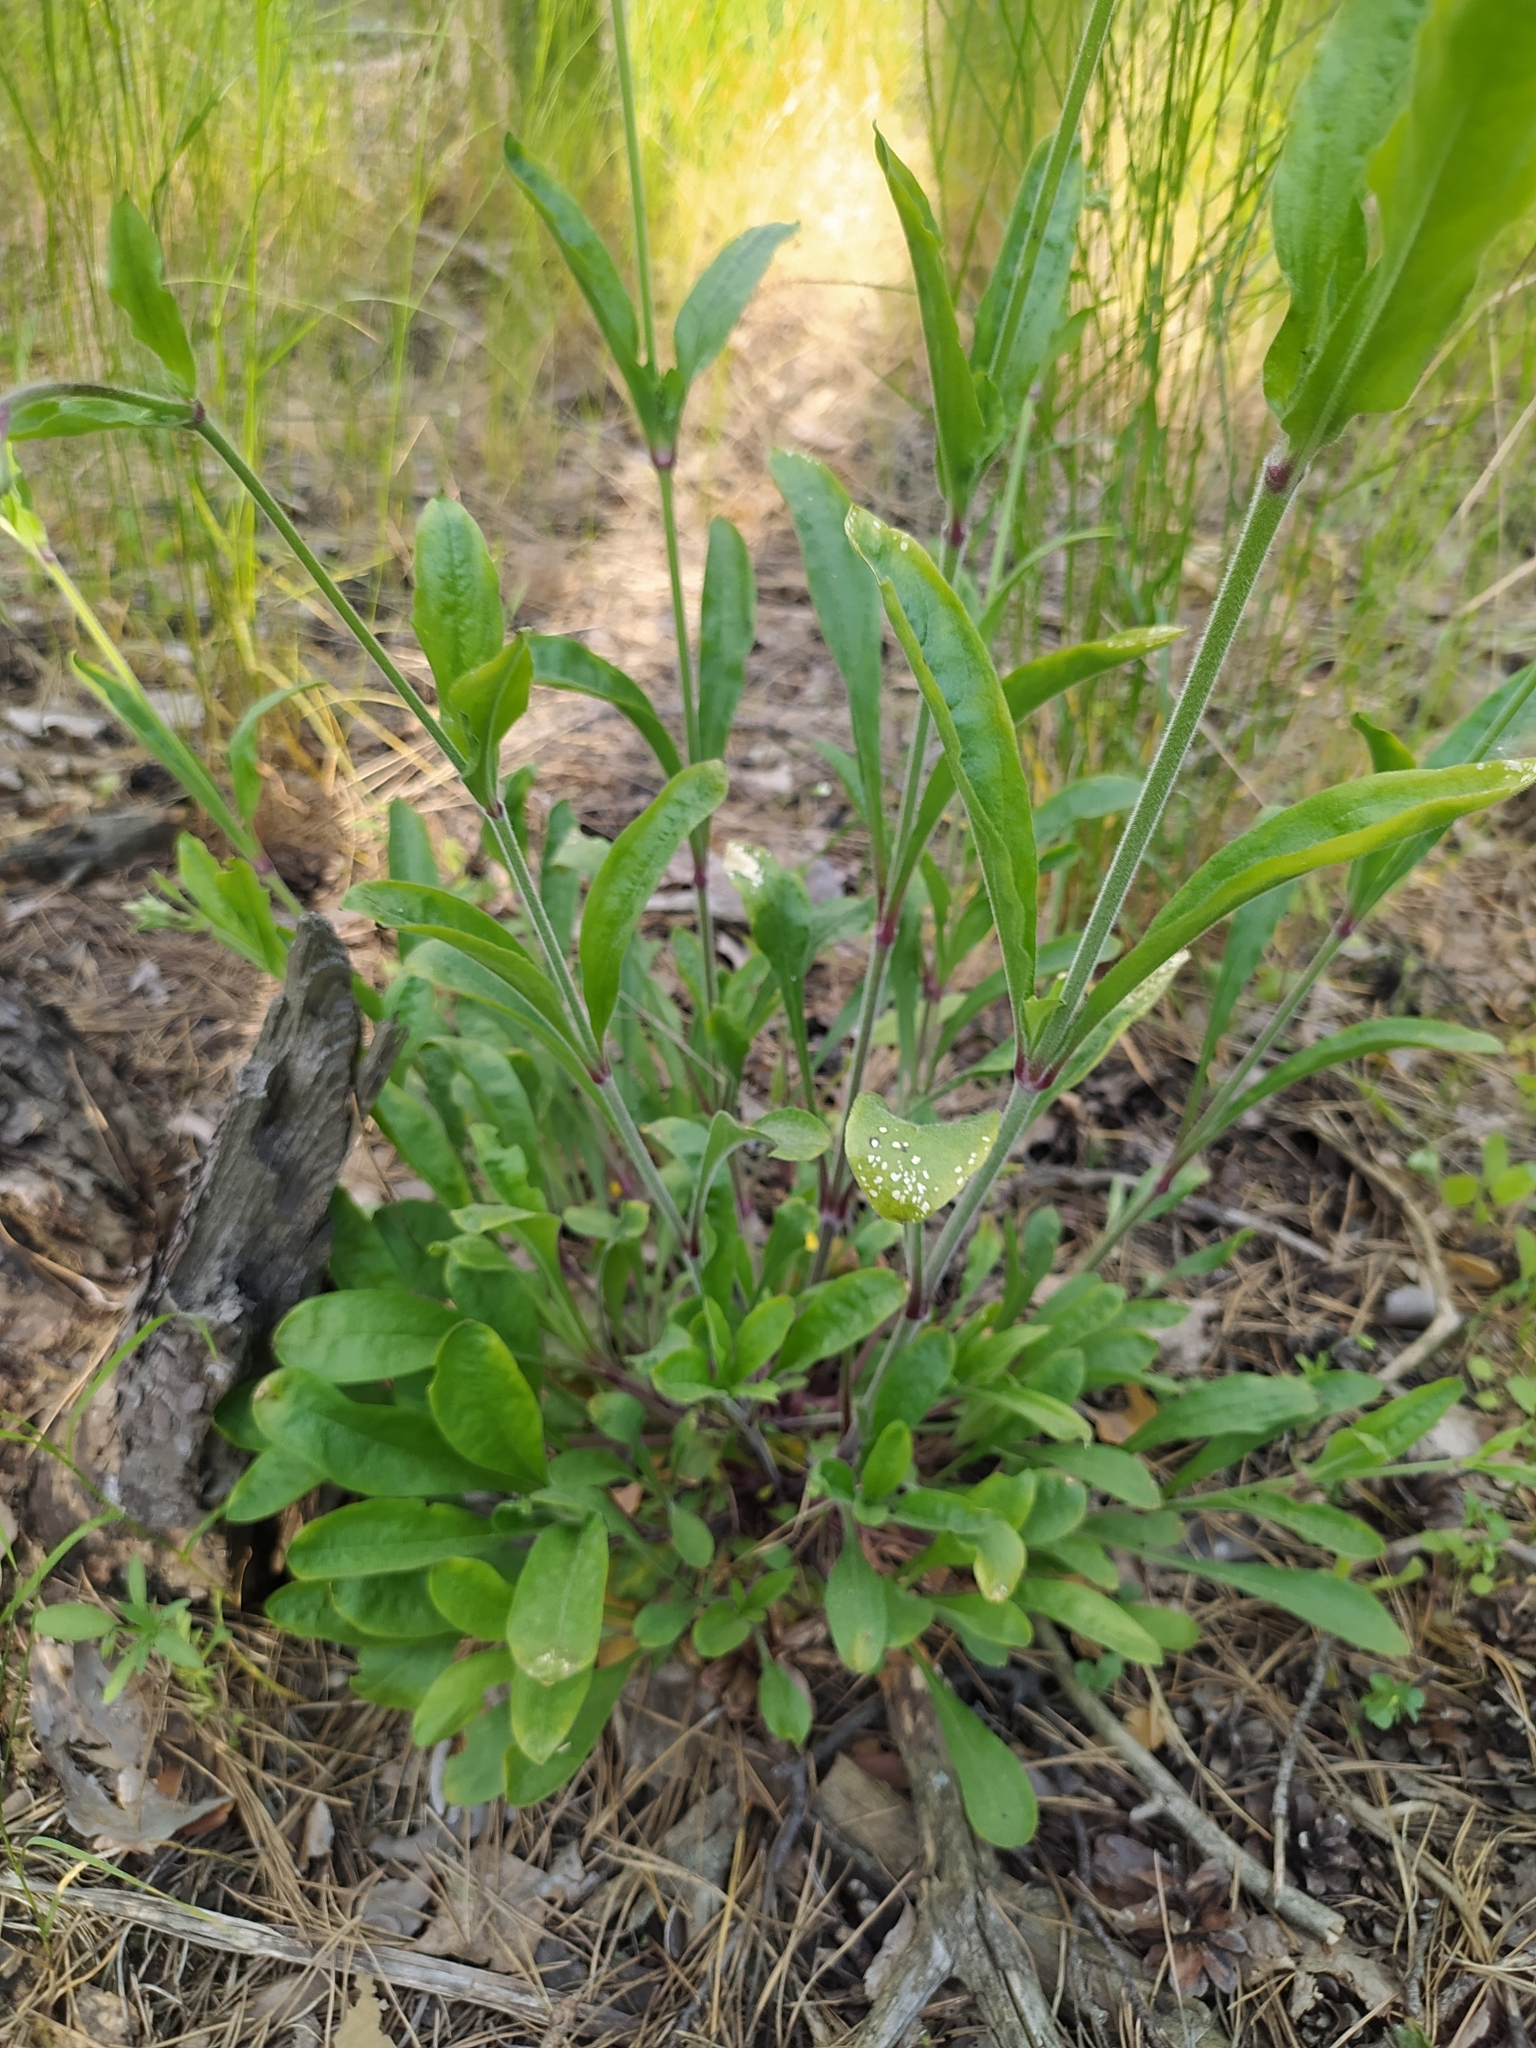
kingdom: Plantae
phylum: Tracheophyta
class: Magnoliopsida
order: Caryophyllales
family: Caryophyllaceae
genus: Silene
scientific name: Silene nutans
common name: Nottingham catchfly
